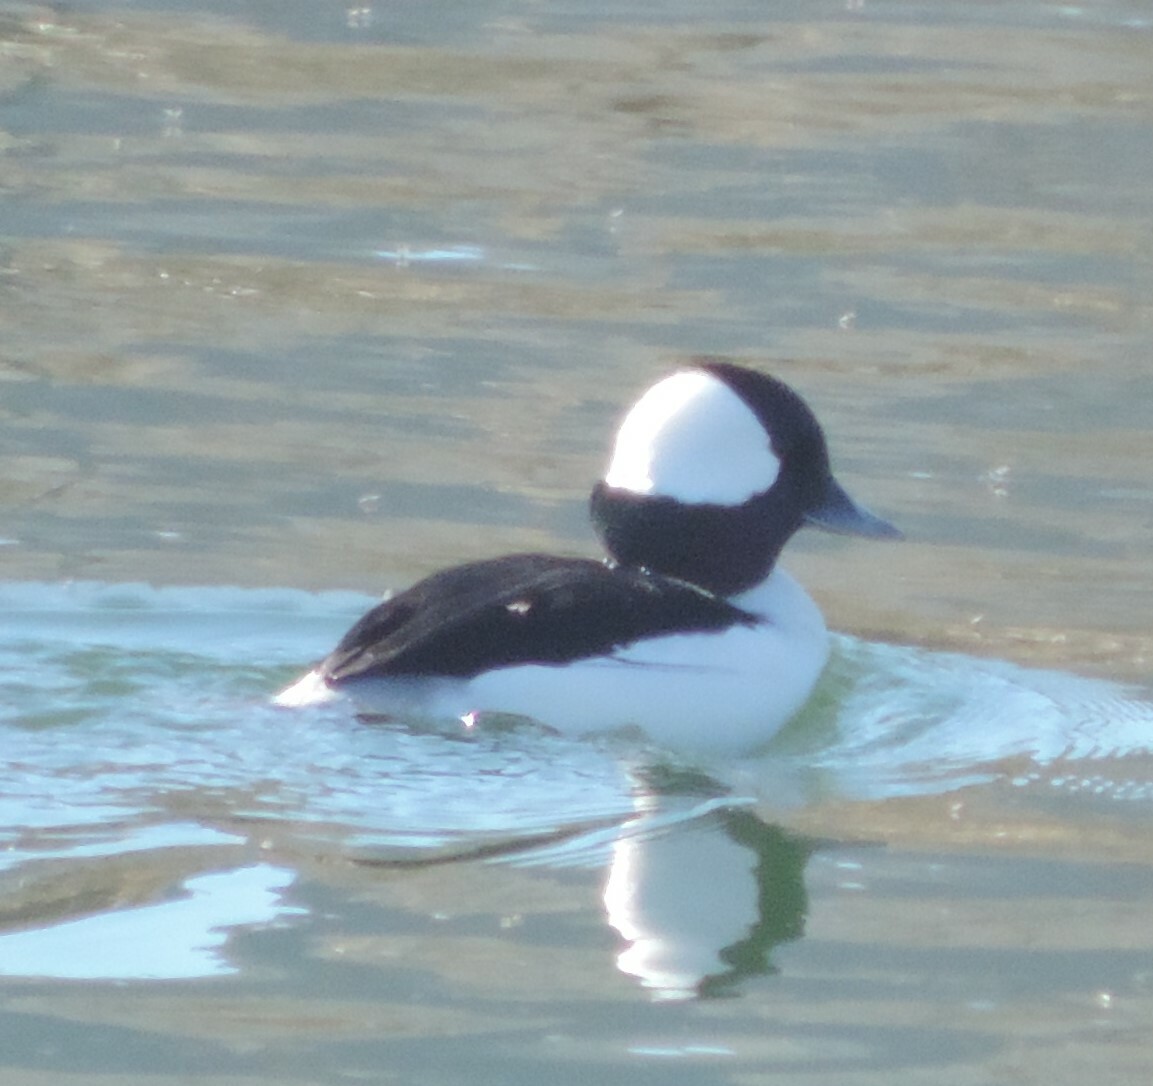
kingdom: Animalia
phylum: Chordata
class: Aves
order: Anseriformes
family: Anatidae
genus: Bucephala
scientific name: Bucephala albeola
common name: Bufflehead
